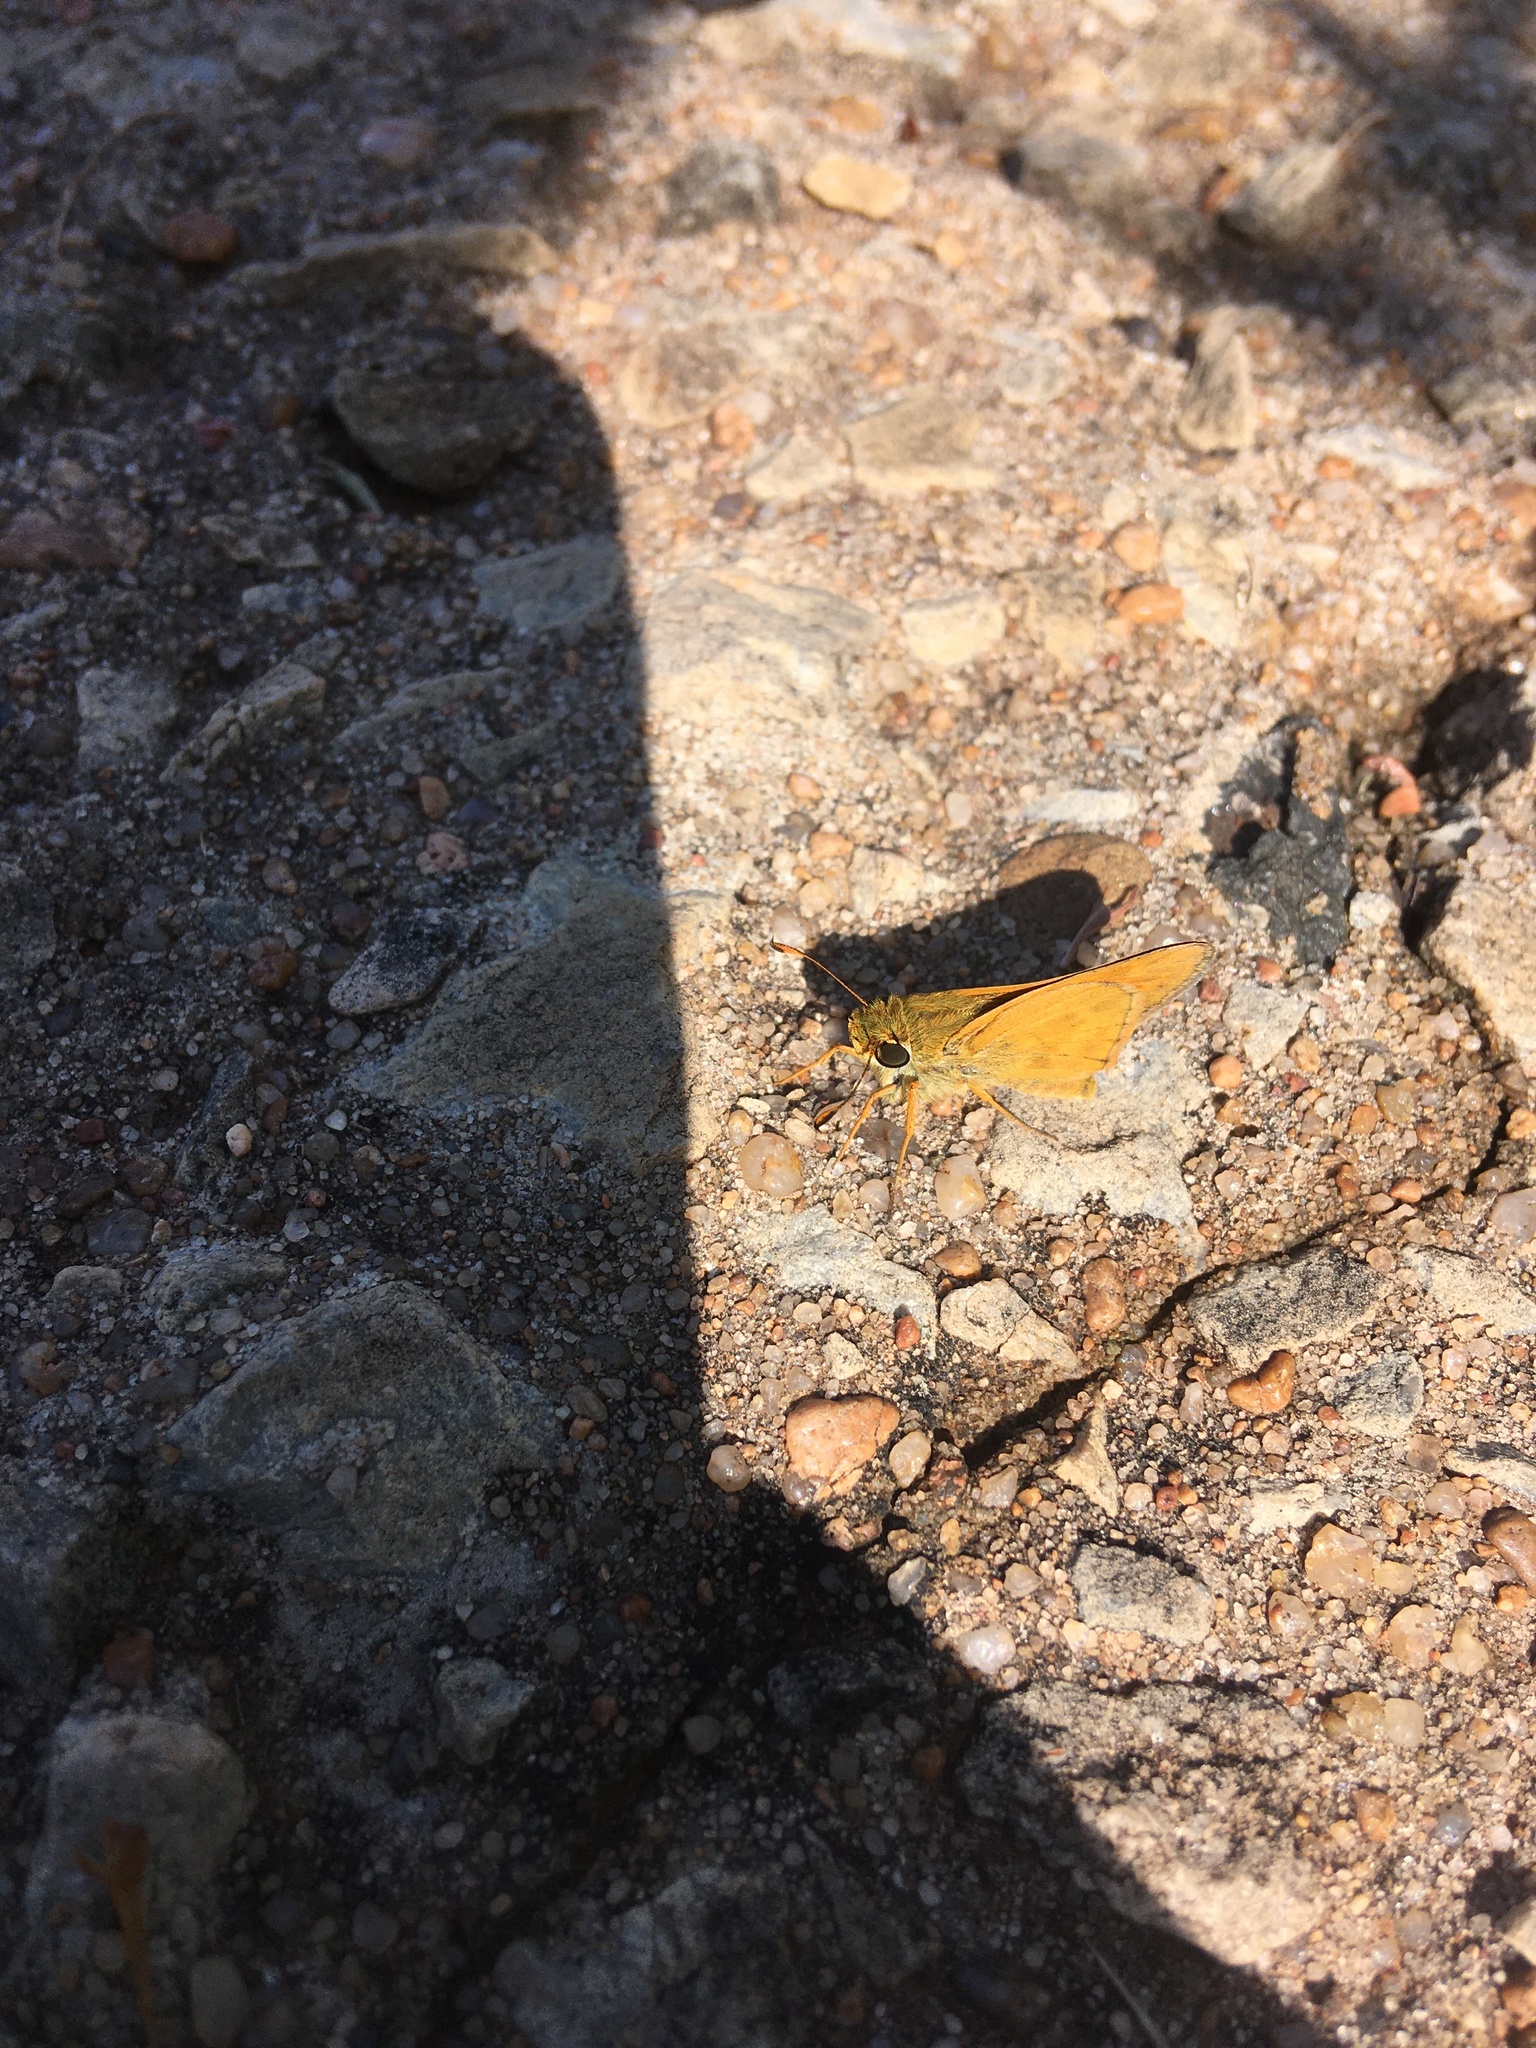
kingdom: Animalia
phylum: Arthropoda
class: Insecta
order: Lepidoptera
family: Hesperiidae
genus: Atalopedes
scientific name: Atalopedes
